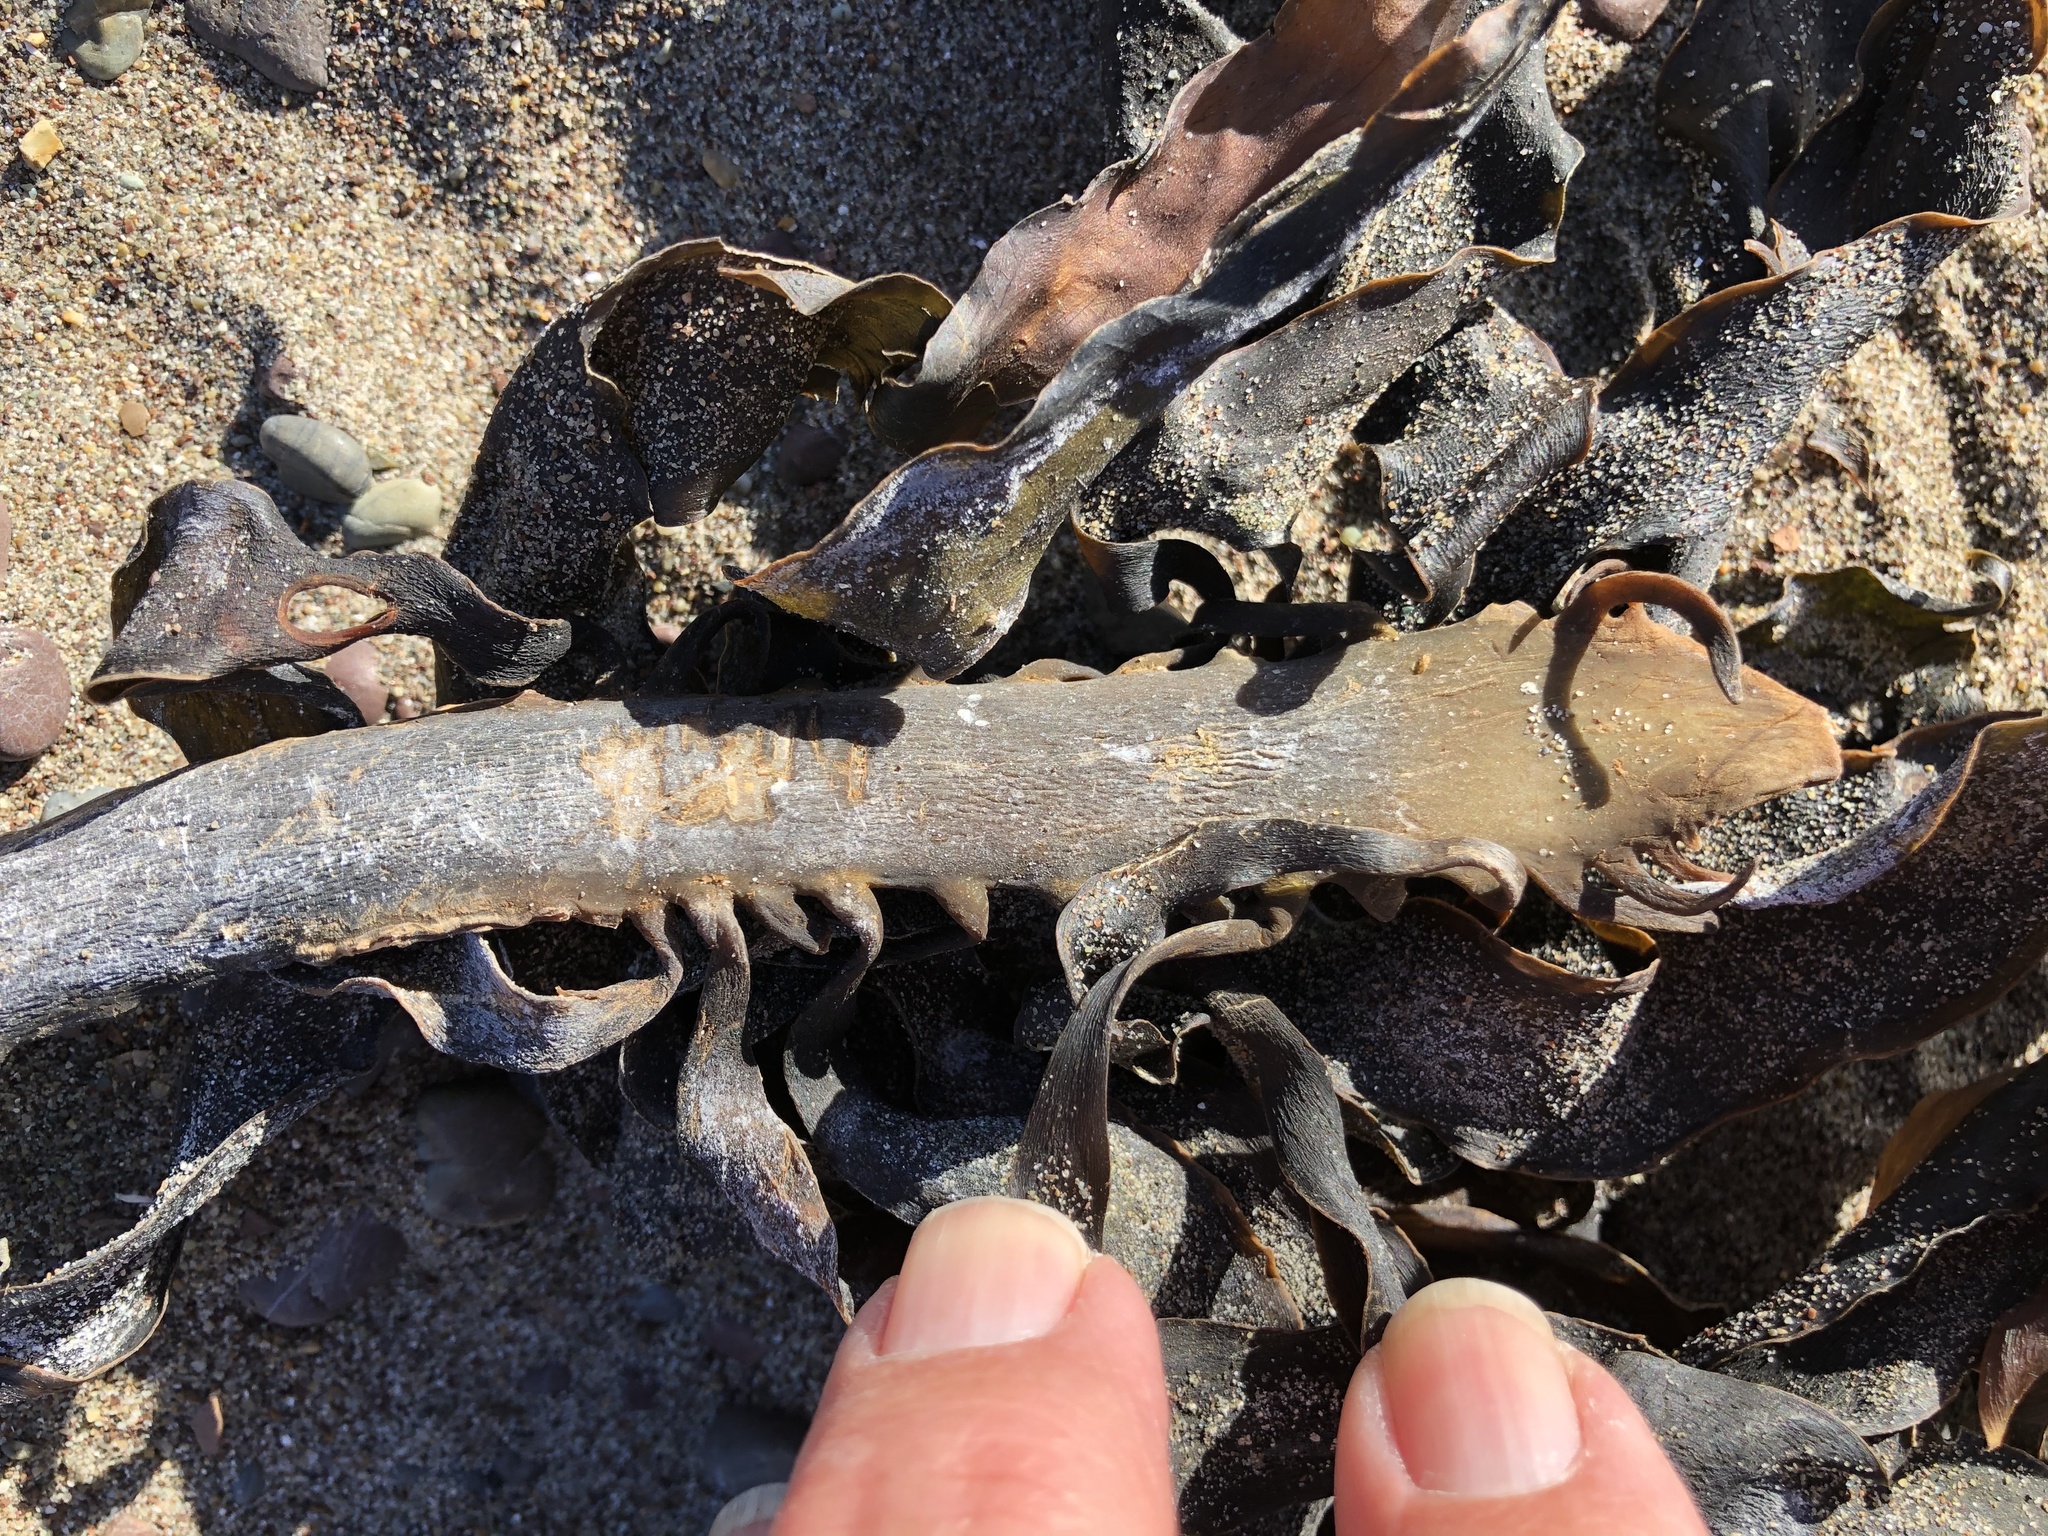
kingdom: Chromista
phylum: Ochrophyta
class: Phaeophyceae
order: Laminariales
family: Alariaceae
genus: Pterygophora
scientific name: Pterygophora californica
